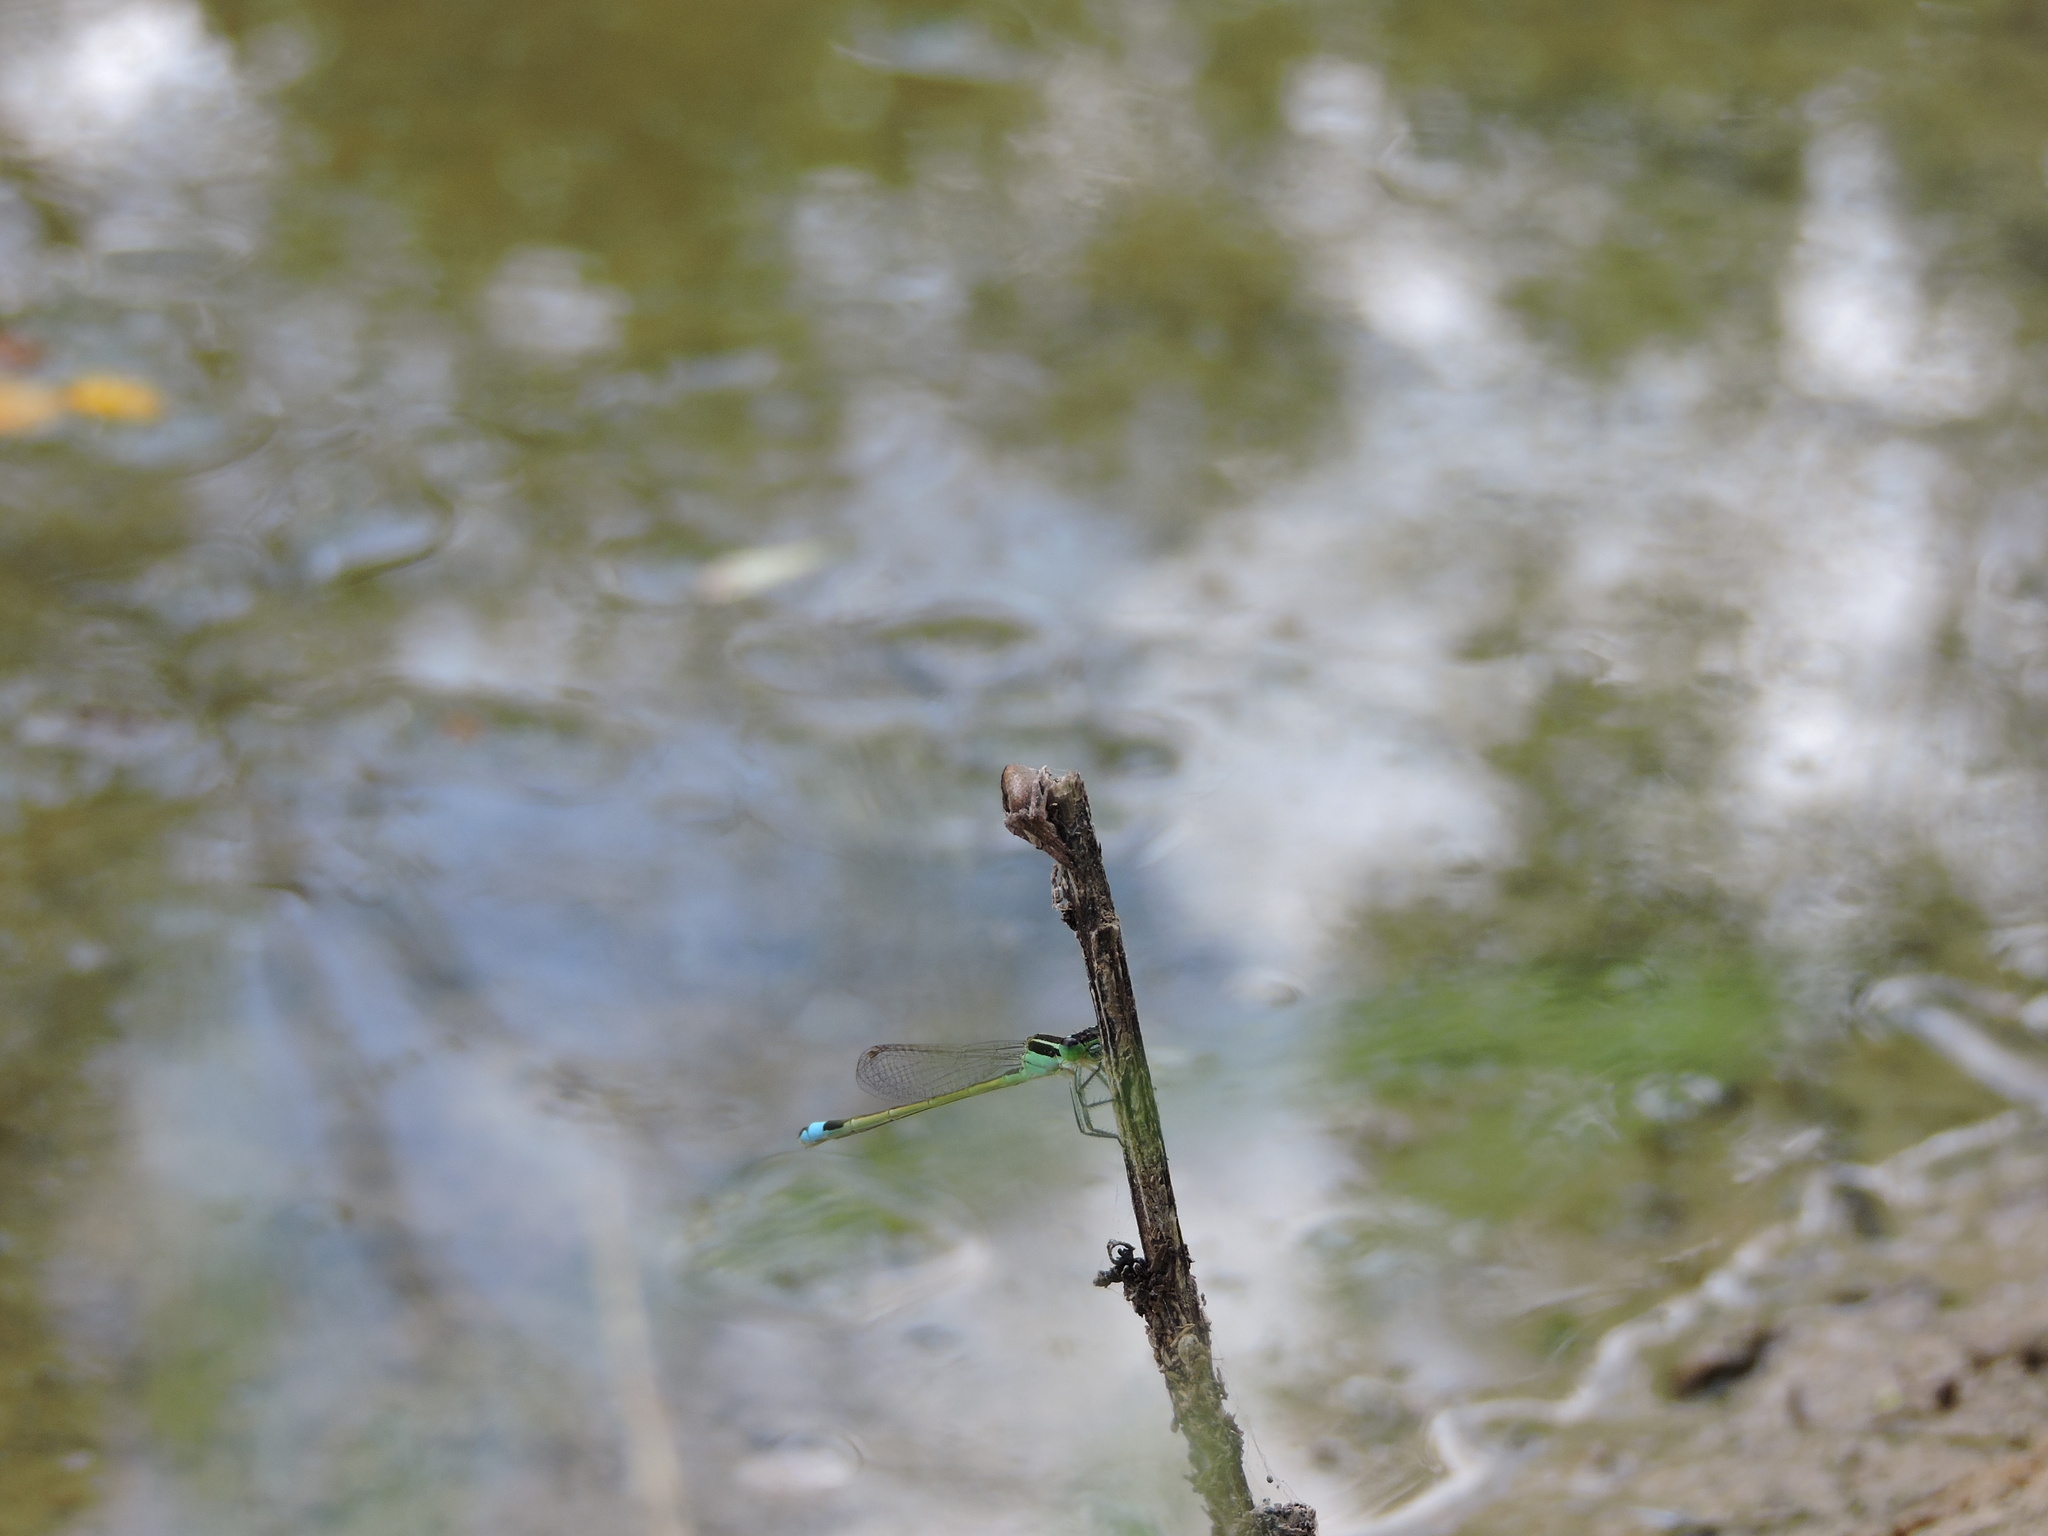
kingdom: Animalia
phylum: Arthropoda
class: Insecta
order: Odonata
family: Coenagrionidae
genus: Ischnura
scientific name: Ischnura ramburii
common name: Rambur's forktail
